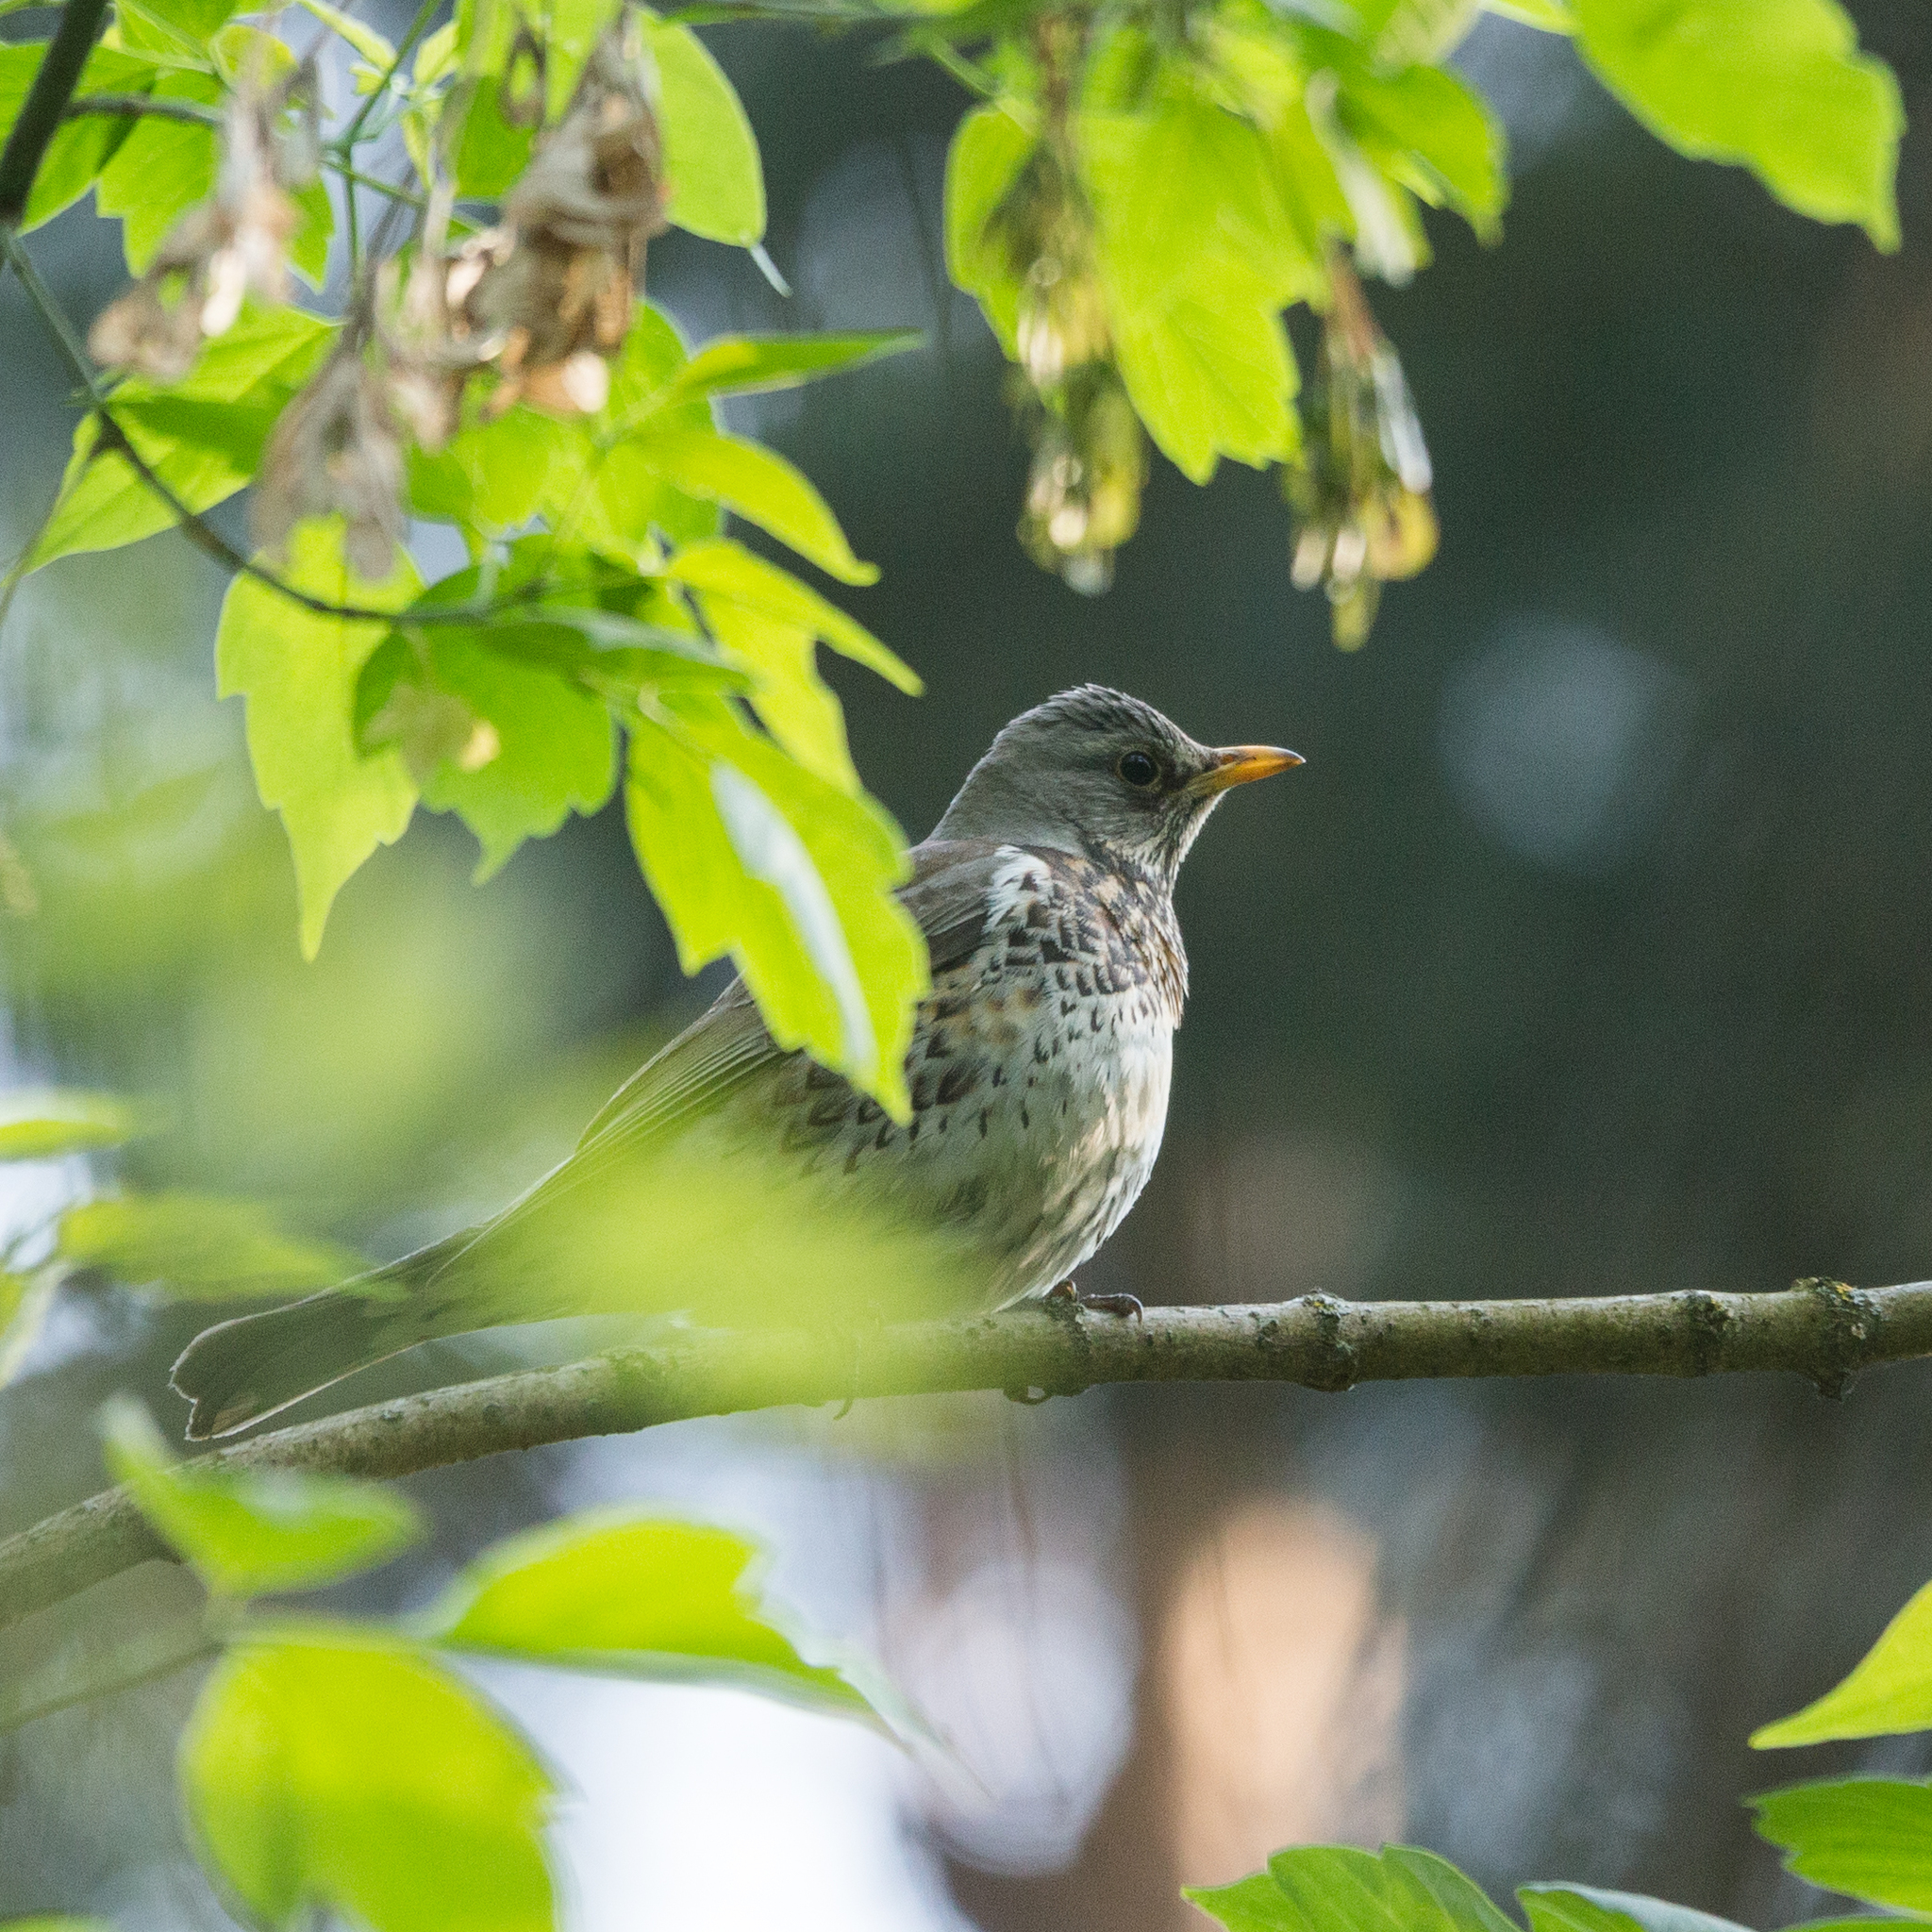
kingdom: Animalia
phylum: Chordata
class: Aves
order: Passeriformes
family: Turdidae
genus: Turdus
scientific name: Turdus pilaris
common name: Fieldfare
